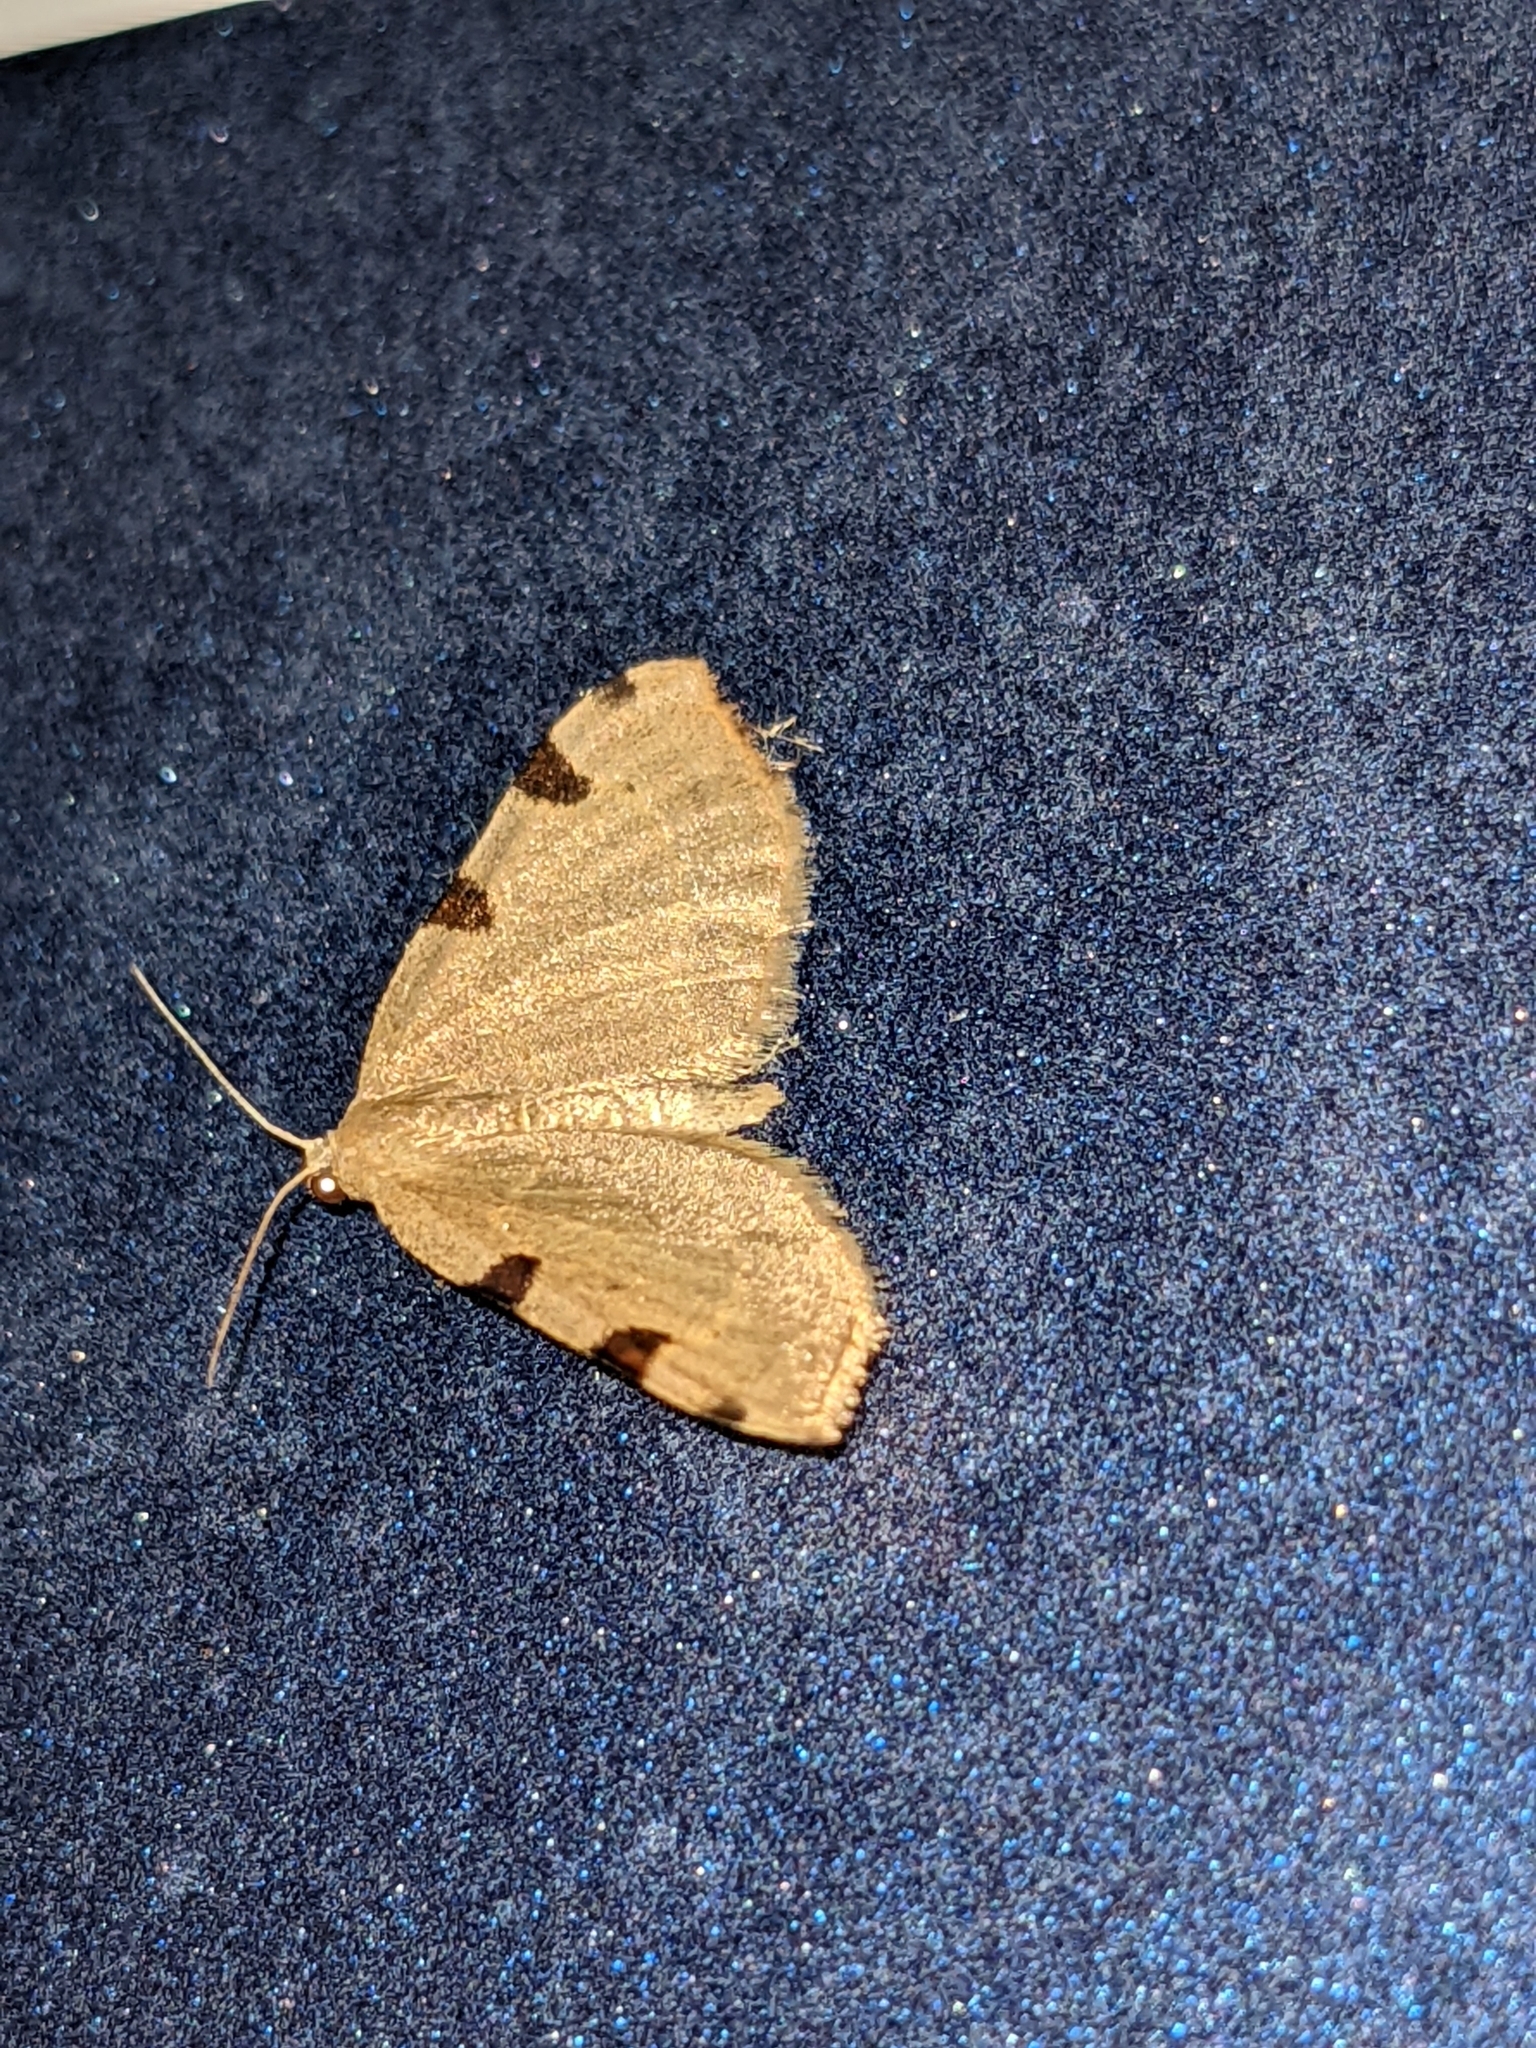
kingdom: Animalia
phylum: Arthropoda
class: Insecta
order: Lepidoptera
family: Geometridae
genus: Heterophleps
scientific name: Heterophleps triguttaria
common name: Three-spotted fillip
